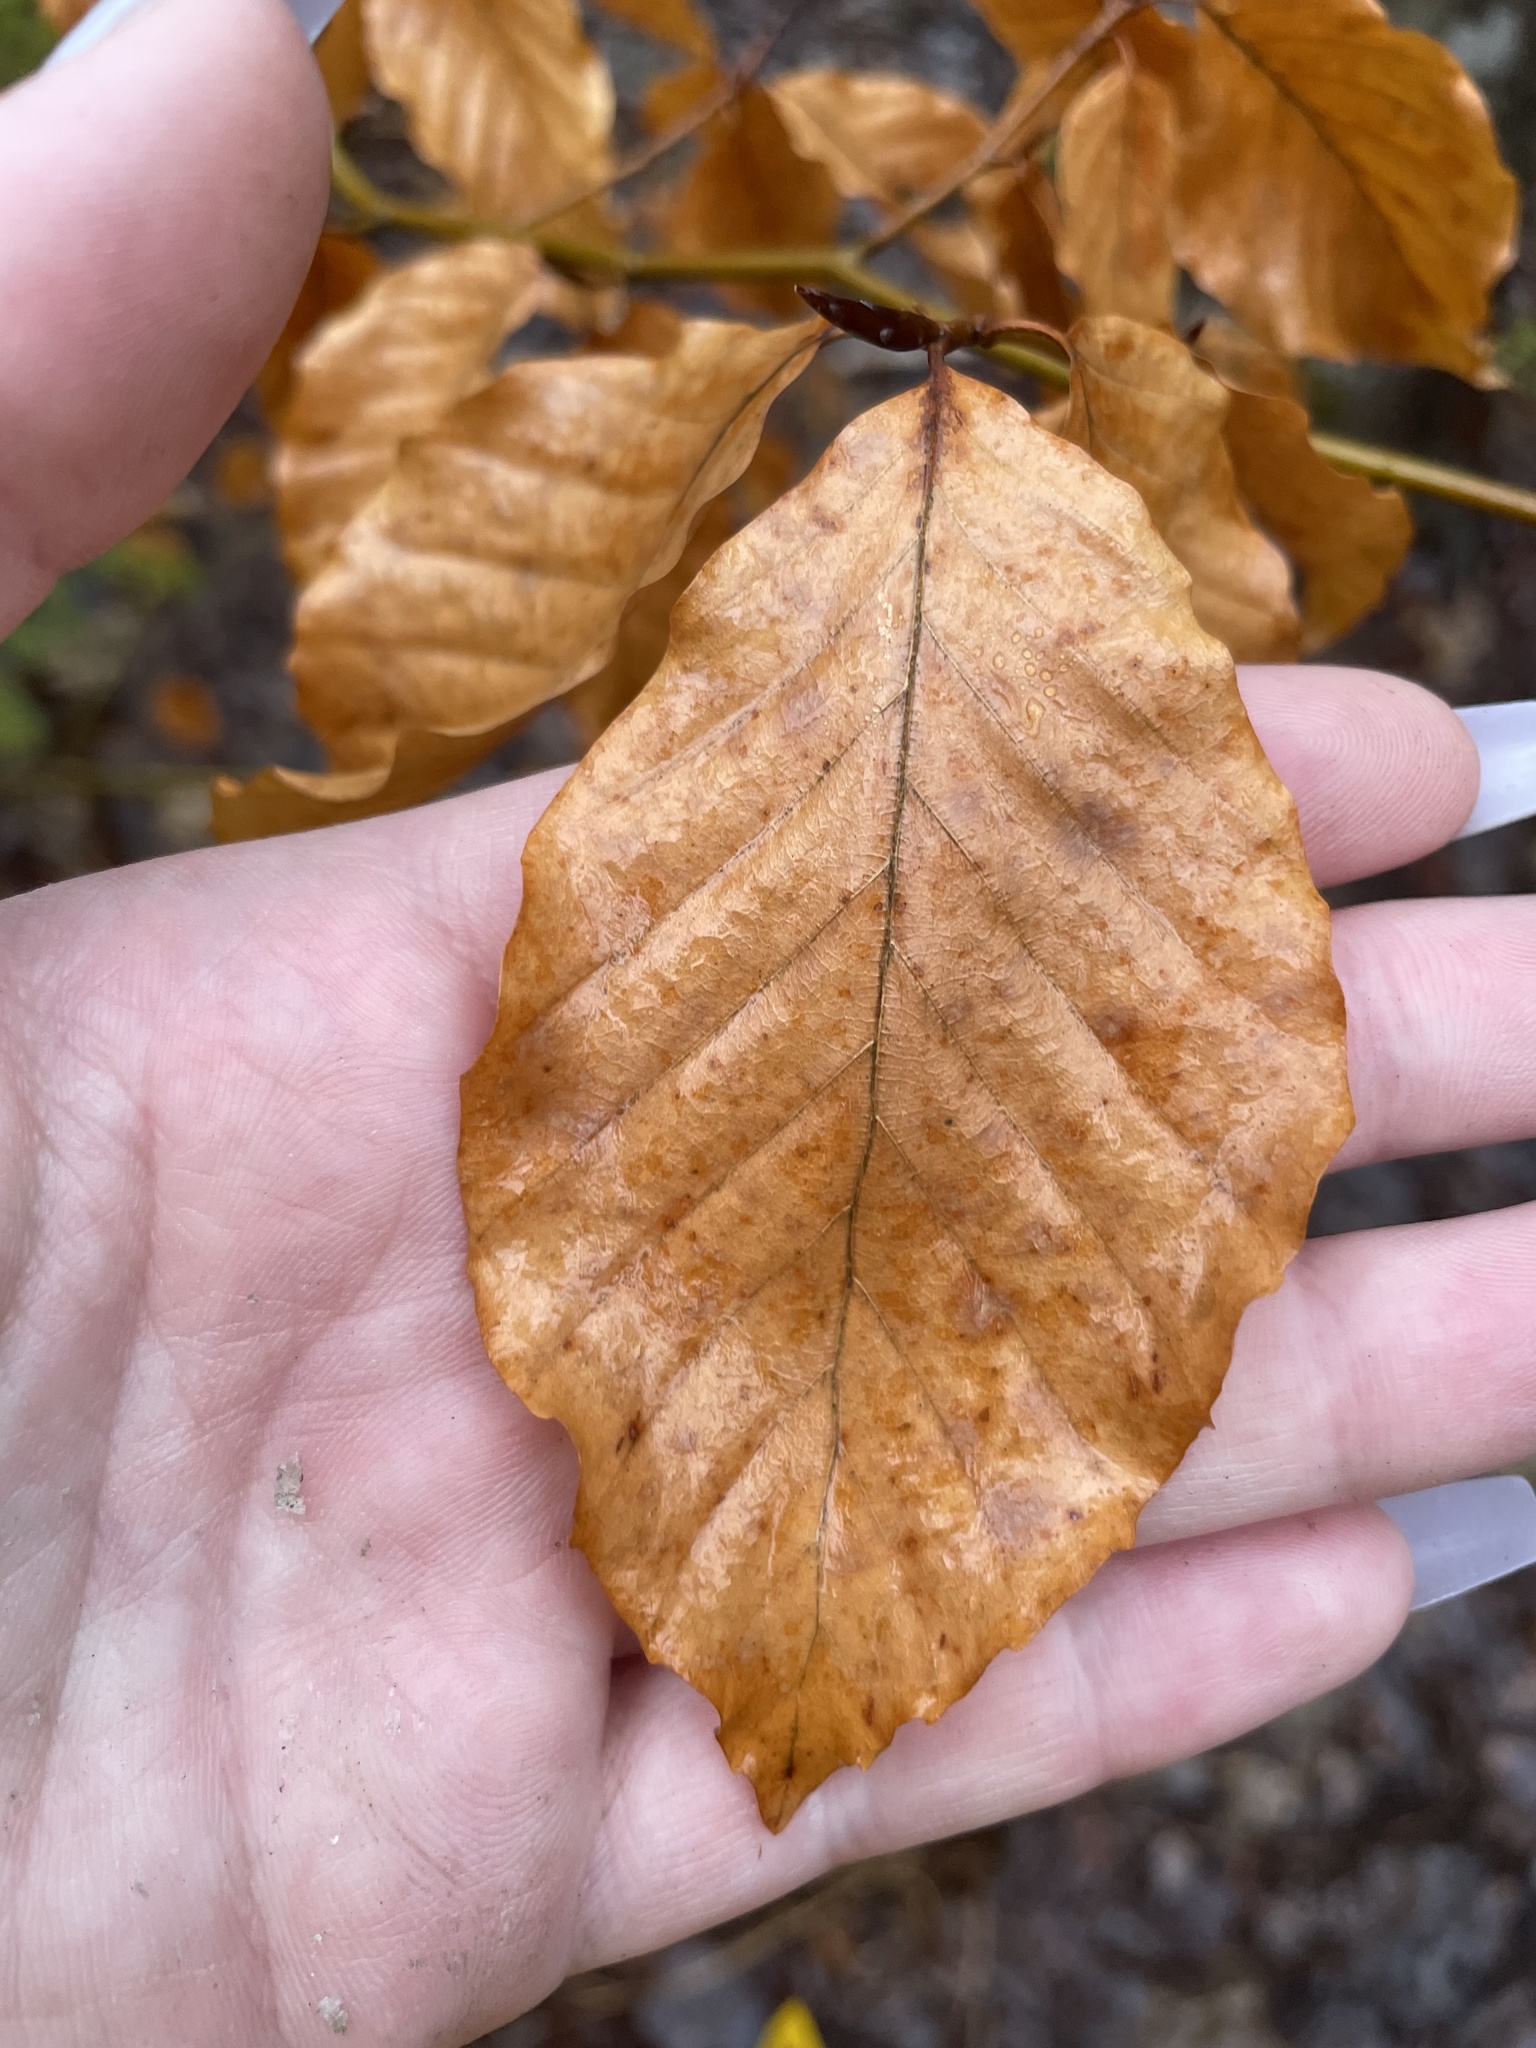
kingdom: Plantae
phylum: Tracheophyta
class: Magnoliopsida
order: Fagales
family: Fagaceae
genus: Fagus
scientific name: Fagus grandifolia
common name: American beech
